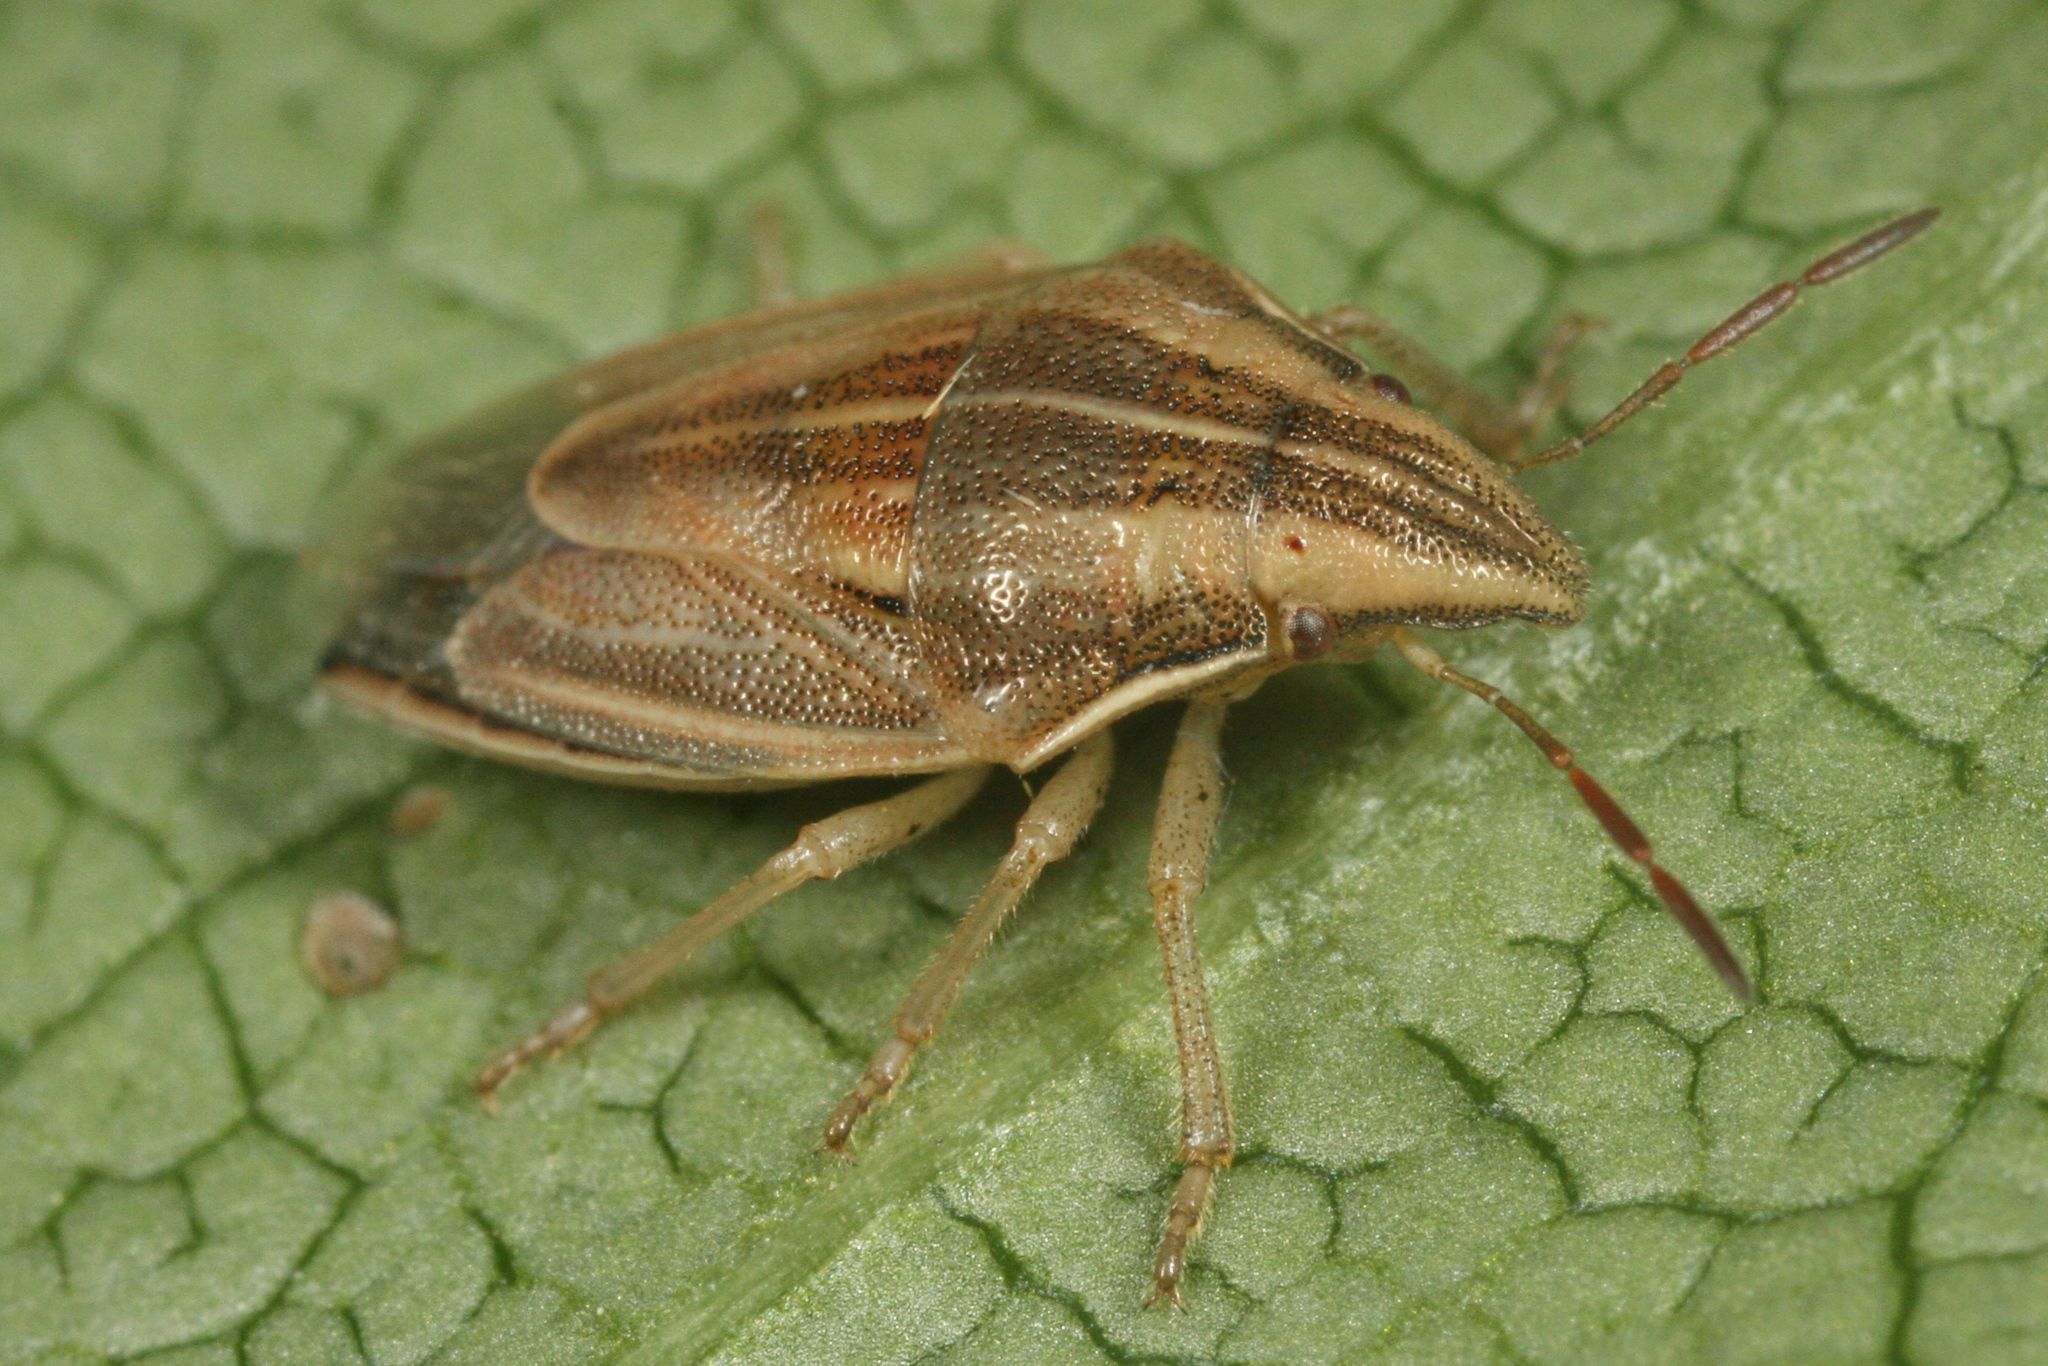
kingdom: Animalia
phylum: Arthropoda
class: Insecta
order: Hemiptera
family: Pentatomidae
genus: Aelia
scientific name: Aelia acuminata
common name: Bishop's mitre
